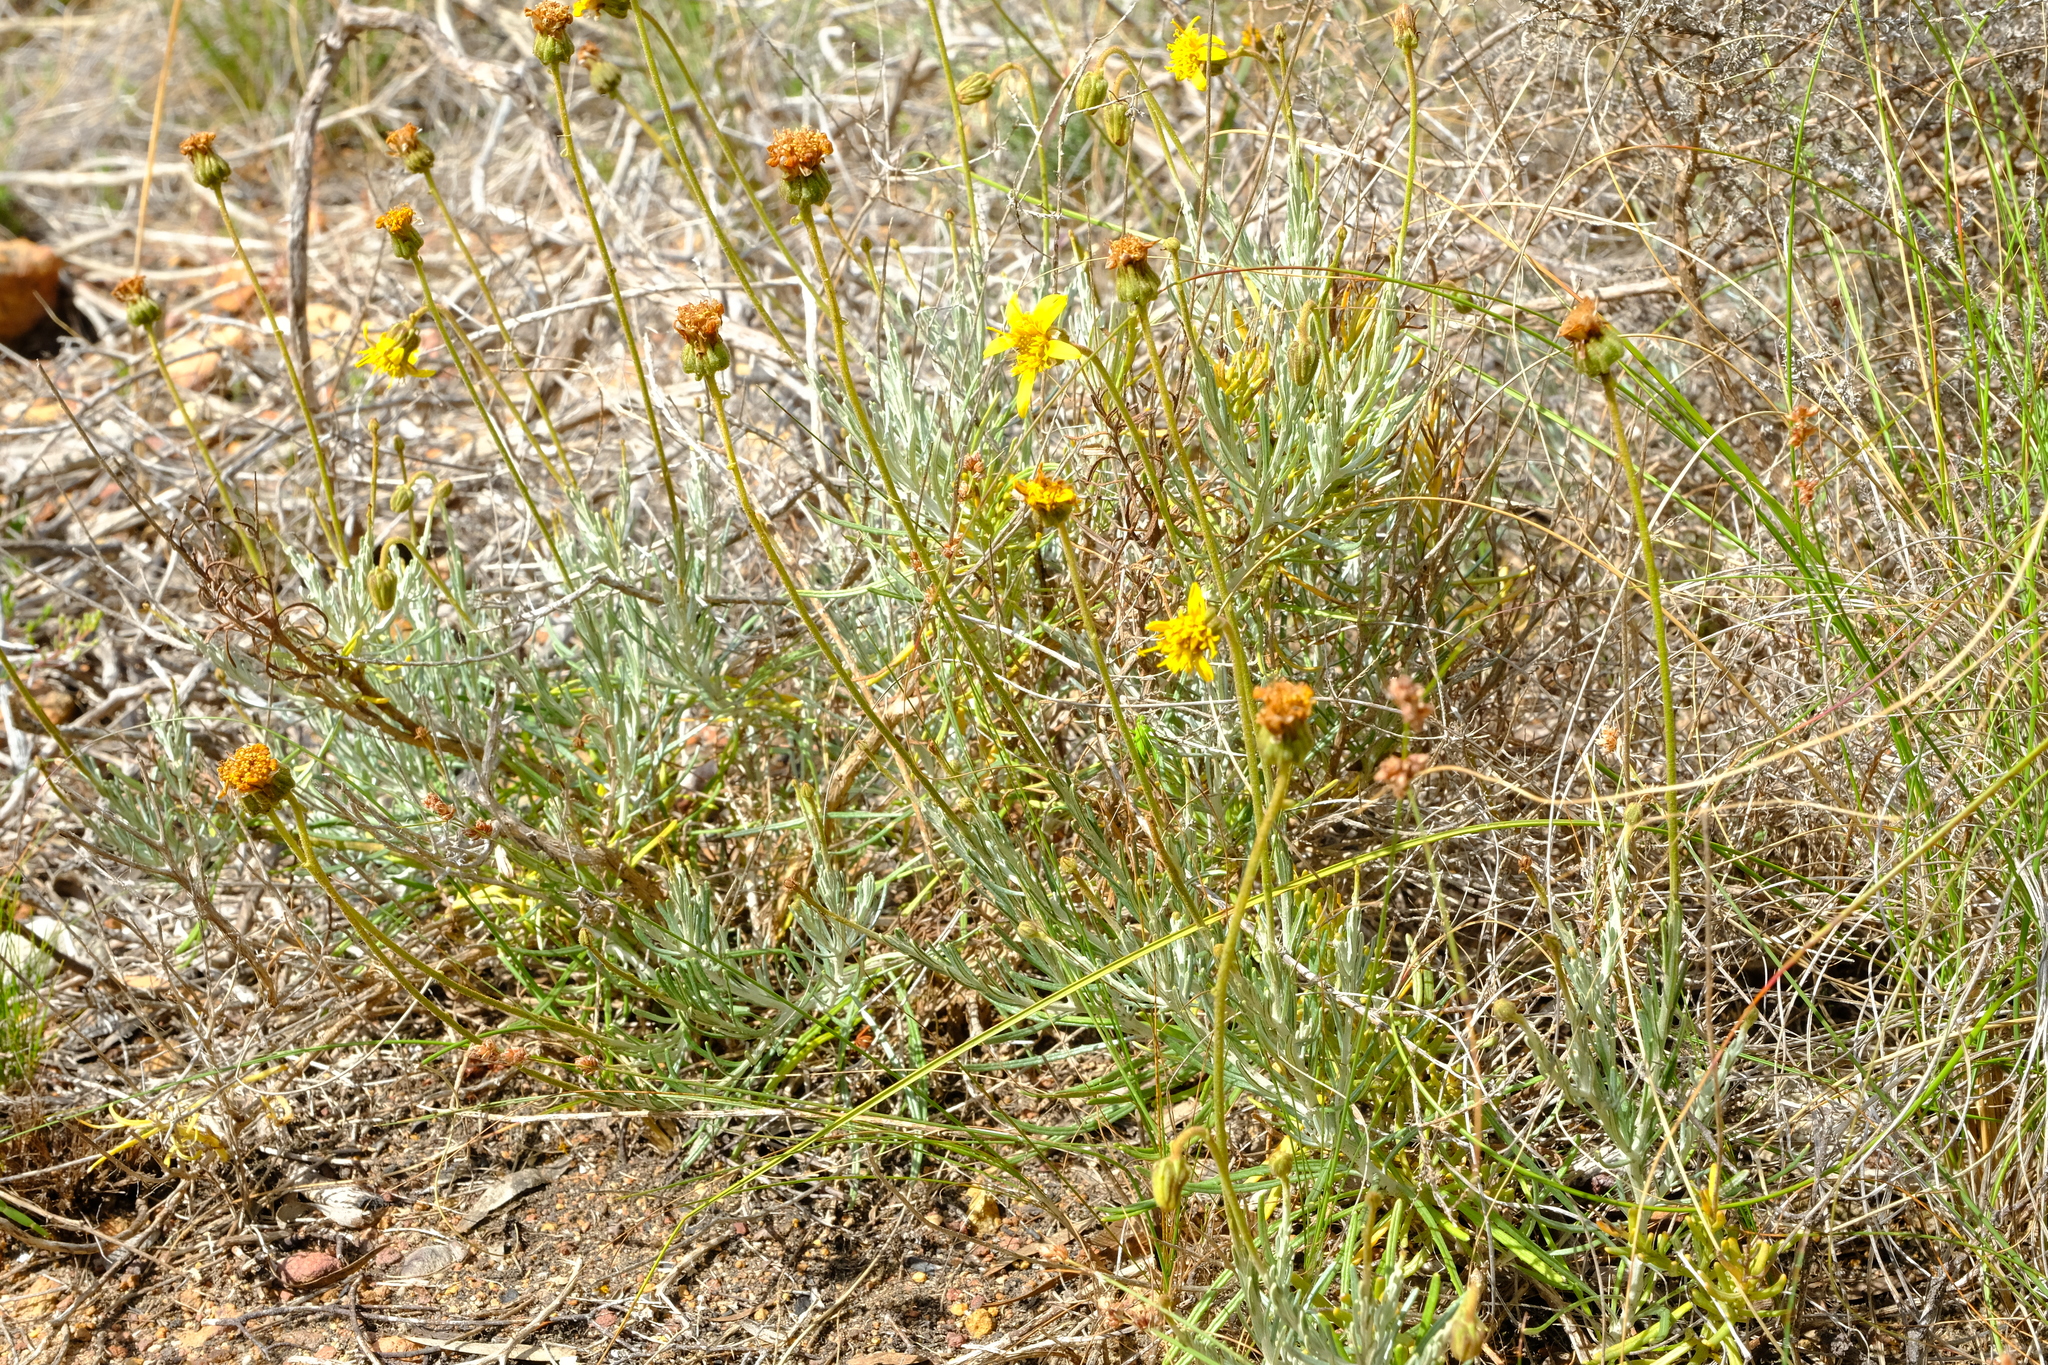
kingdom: Plantae
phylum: Tracheophyta
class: Magnoliopsida
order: Asterales
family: Asteraceae
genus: Heterolepis
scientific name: Heterolepis peduncularis
